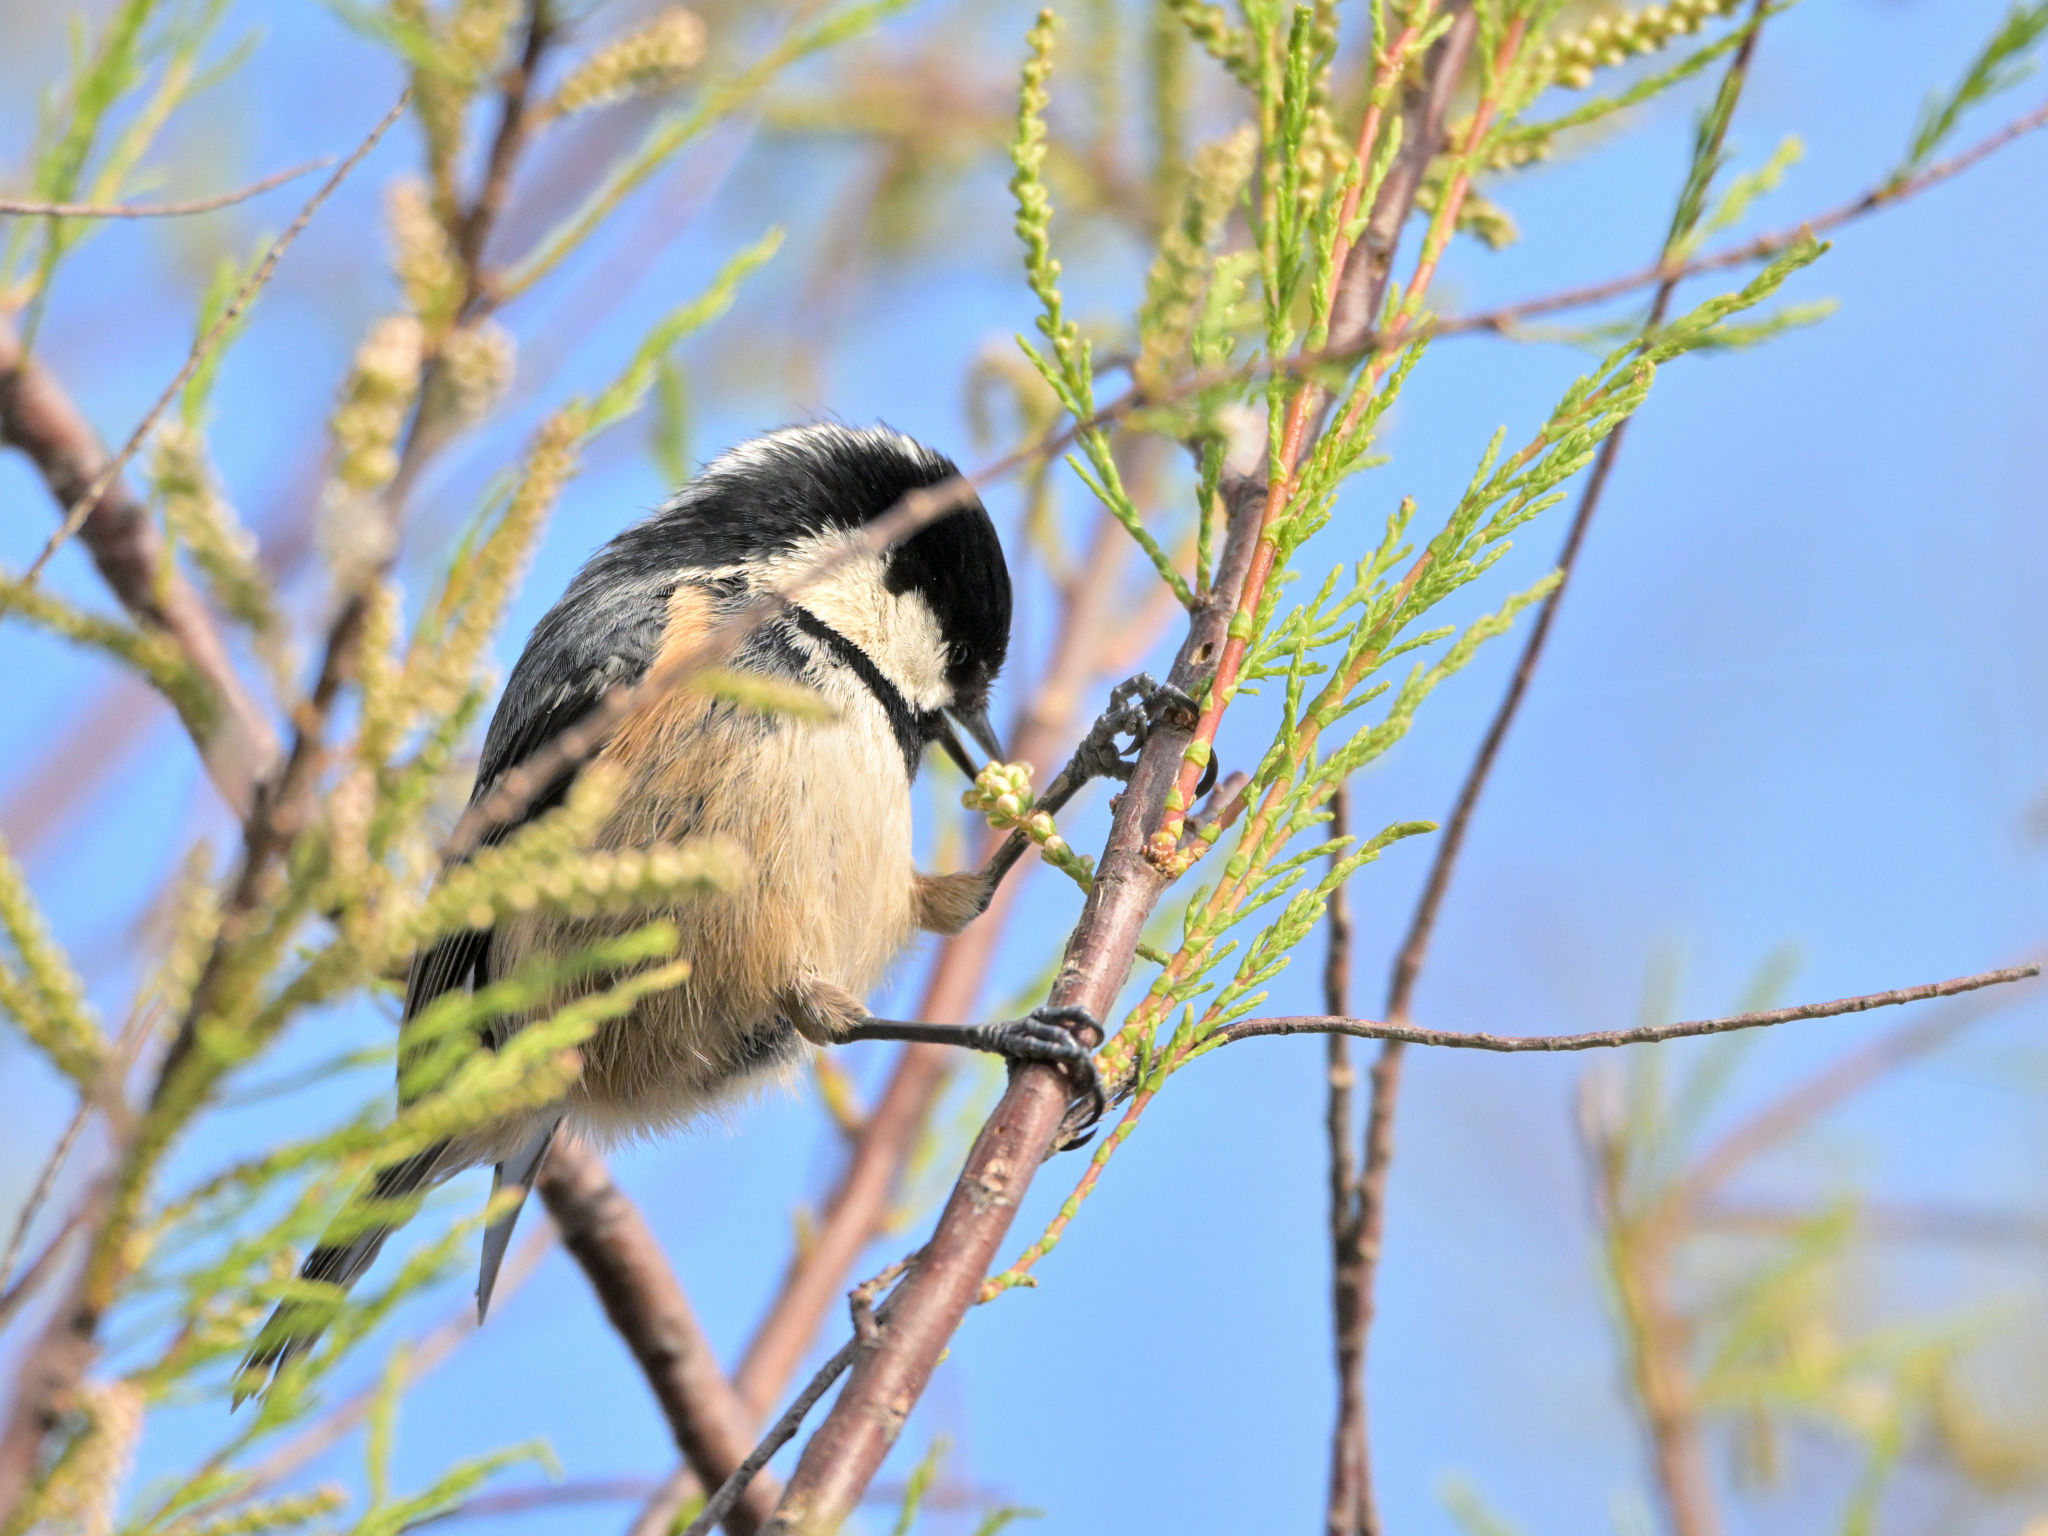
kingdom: Animalia
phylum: Chordata
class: Aves
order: Passeriformes
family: Paridae
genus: Periparus
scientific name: Periparus ater
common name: Coal tit
